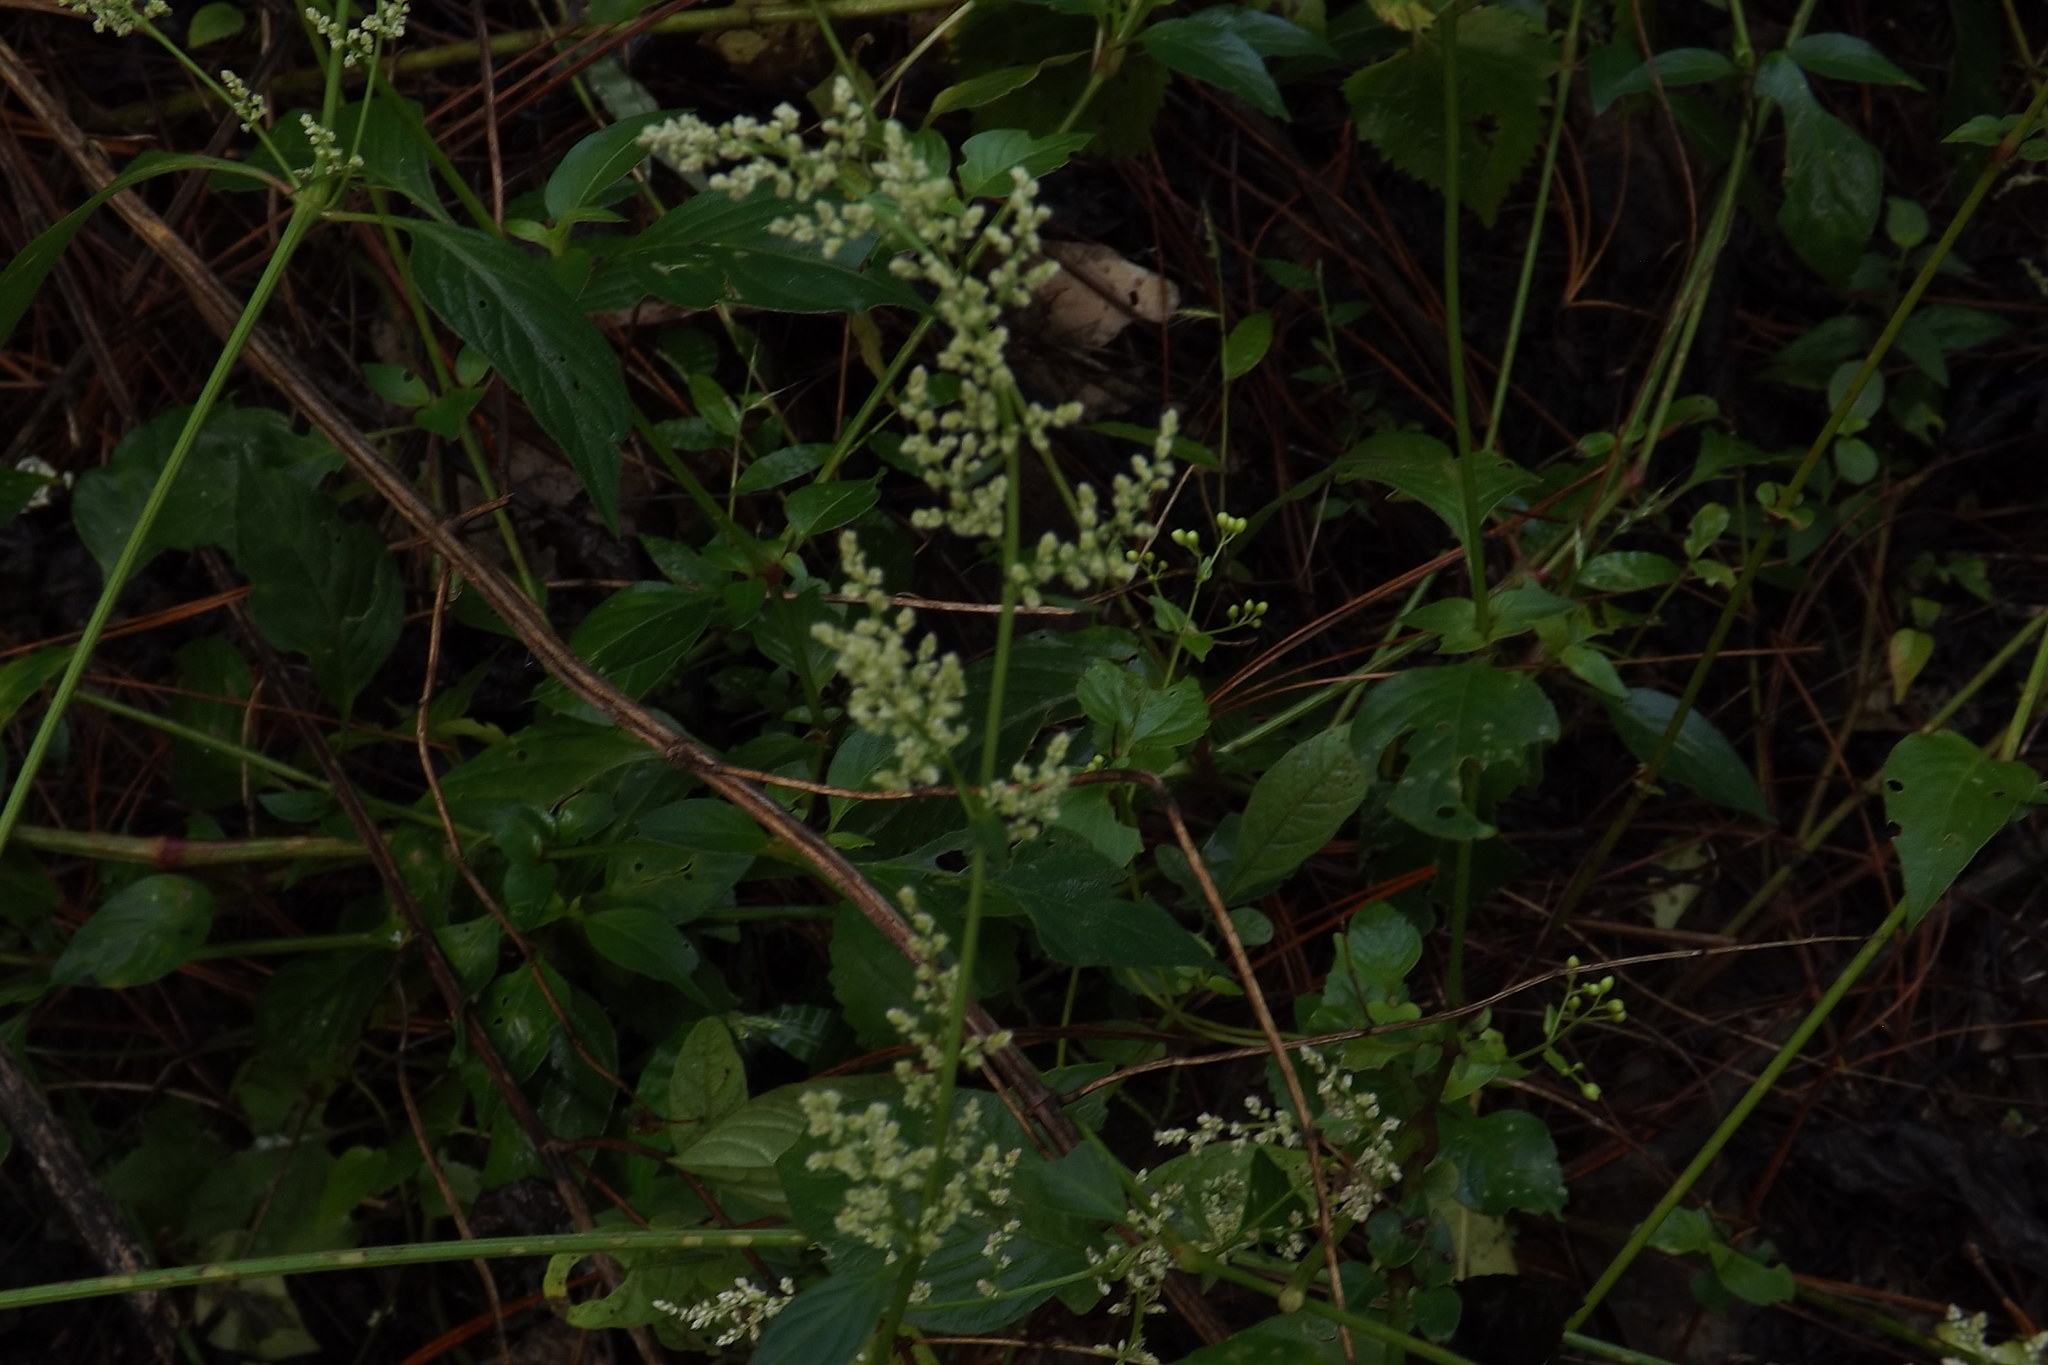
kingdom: Plantae
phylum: Tracheophyta
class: Magnoliopsida
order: Caryophyllales
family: Amaranthaceae
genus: Iresine
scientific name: Iresine diffusa
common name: Juba's-bush
